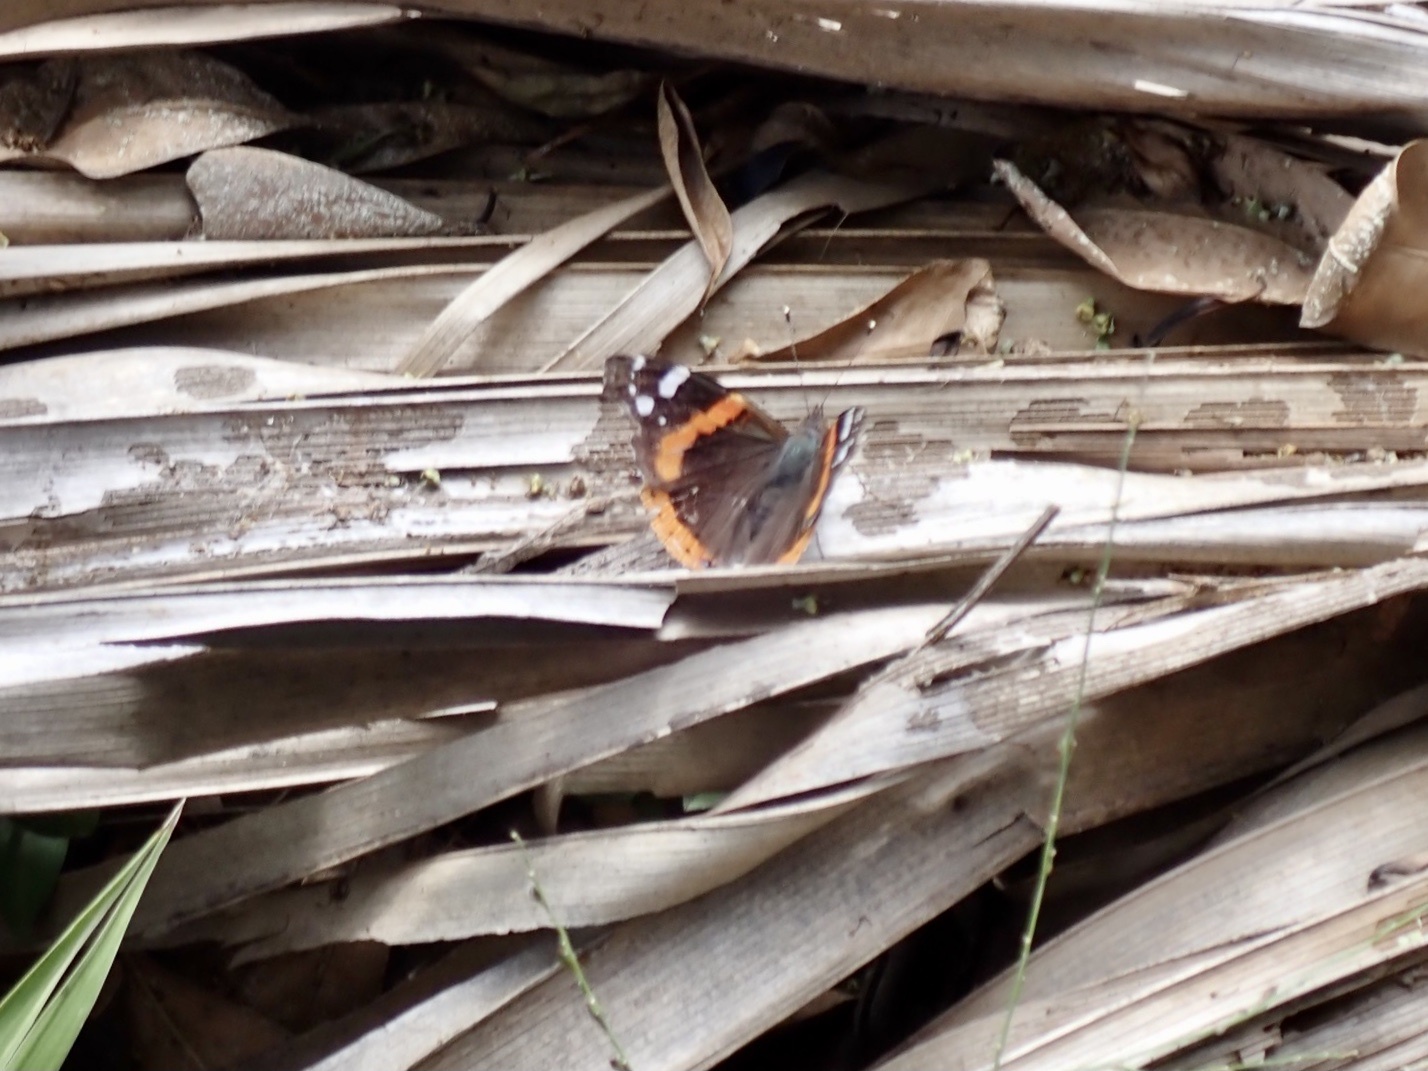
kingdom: Animalia
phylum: Arthropoda
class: Insecta
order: Lepidoptera
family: Nymphalidae
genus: Vanessa
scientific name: Vanessa atalanta
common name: Red admiral
